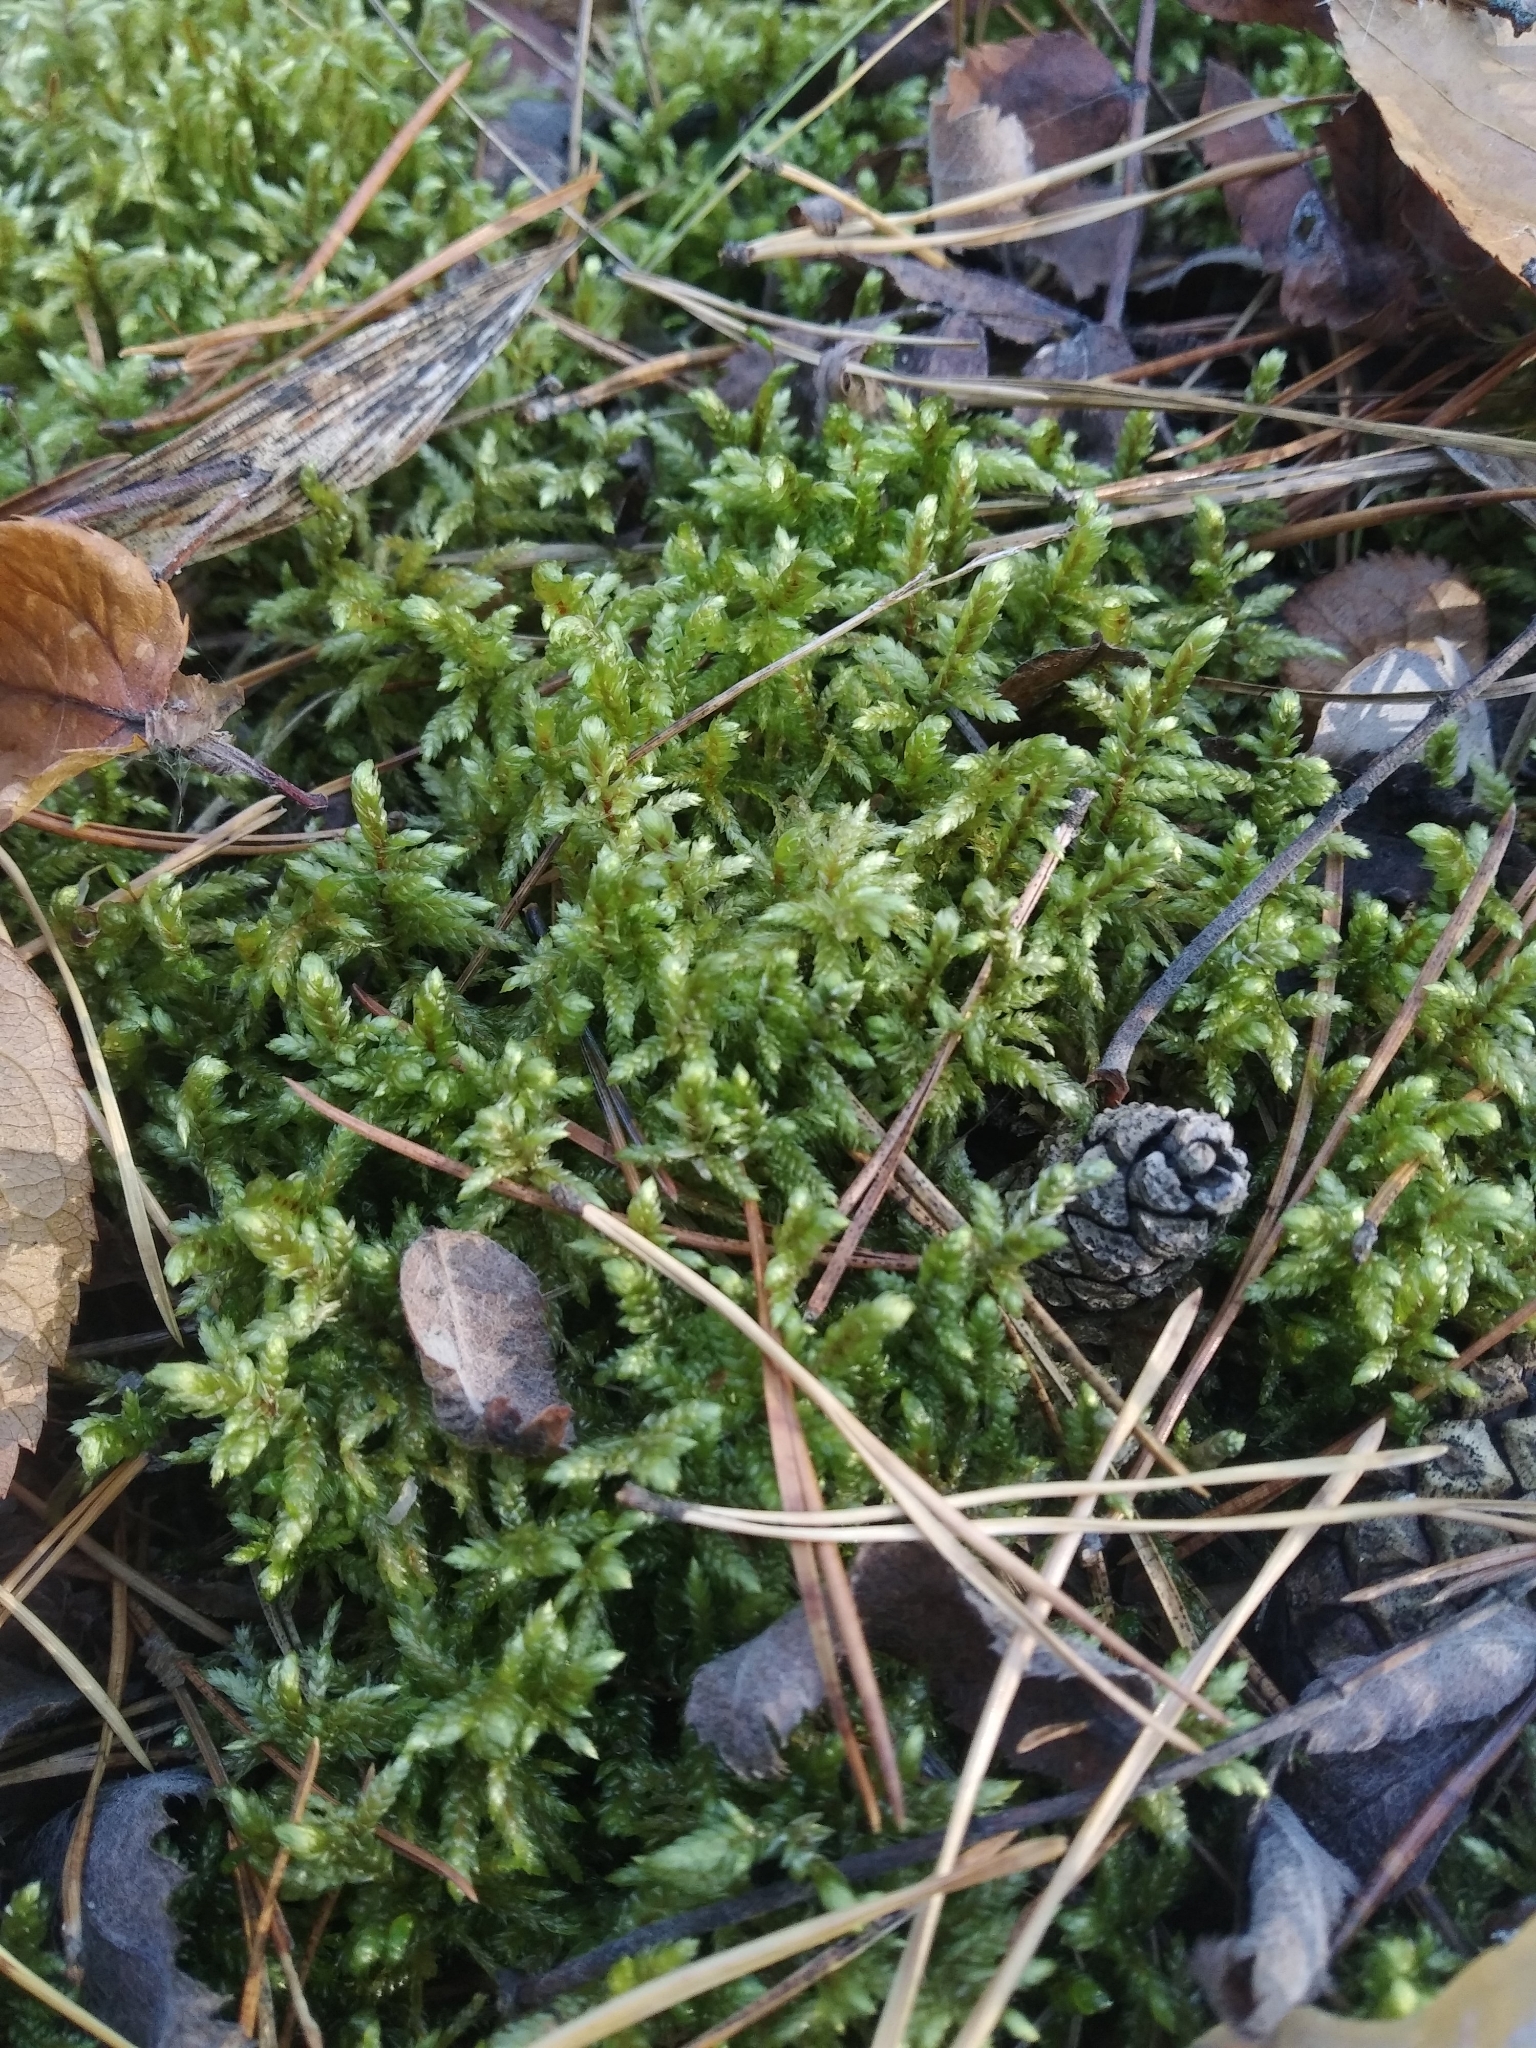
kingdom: Plantae
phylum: Bryophyta
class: Bryopsida
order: Hypnales
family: Hylocomiaceae
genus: Pleurozium
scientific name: Pleurozium schreberi
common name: Red-stemmed feather moss
